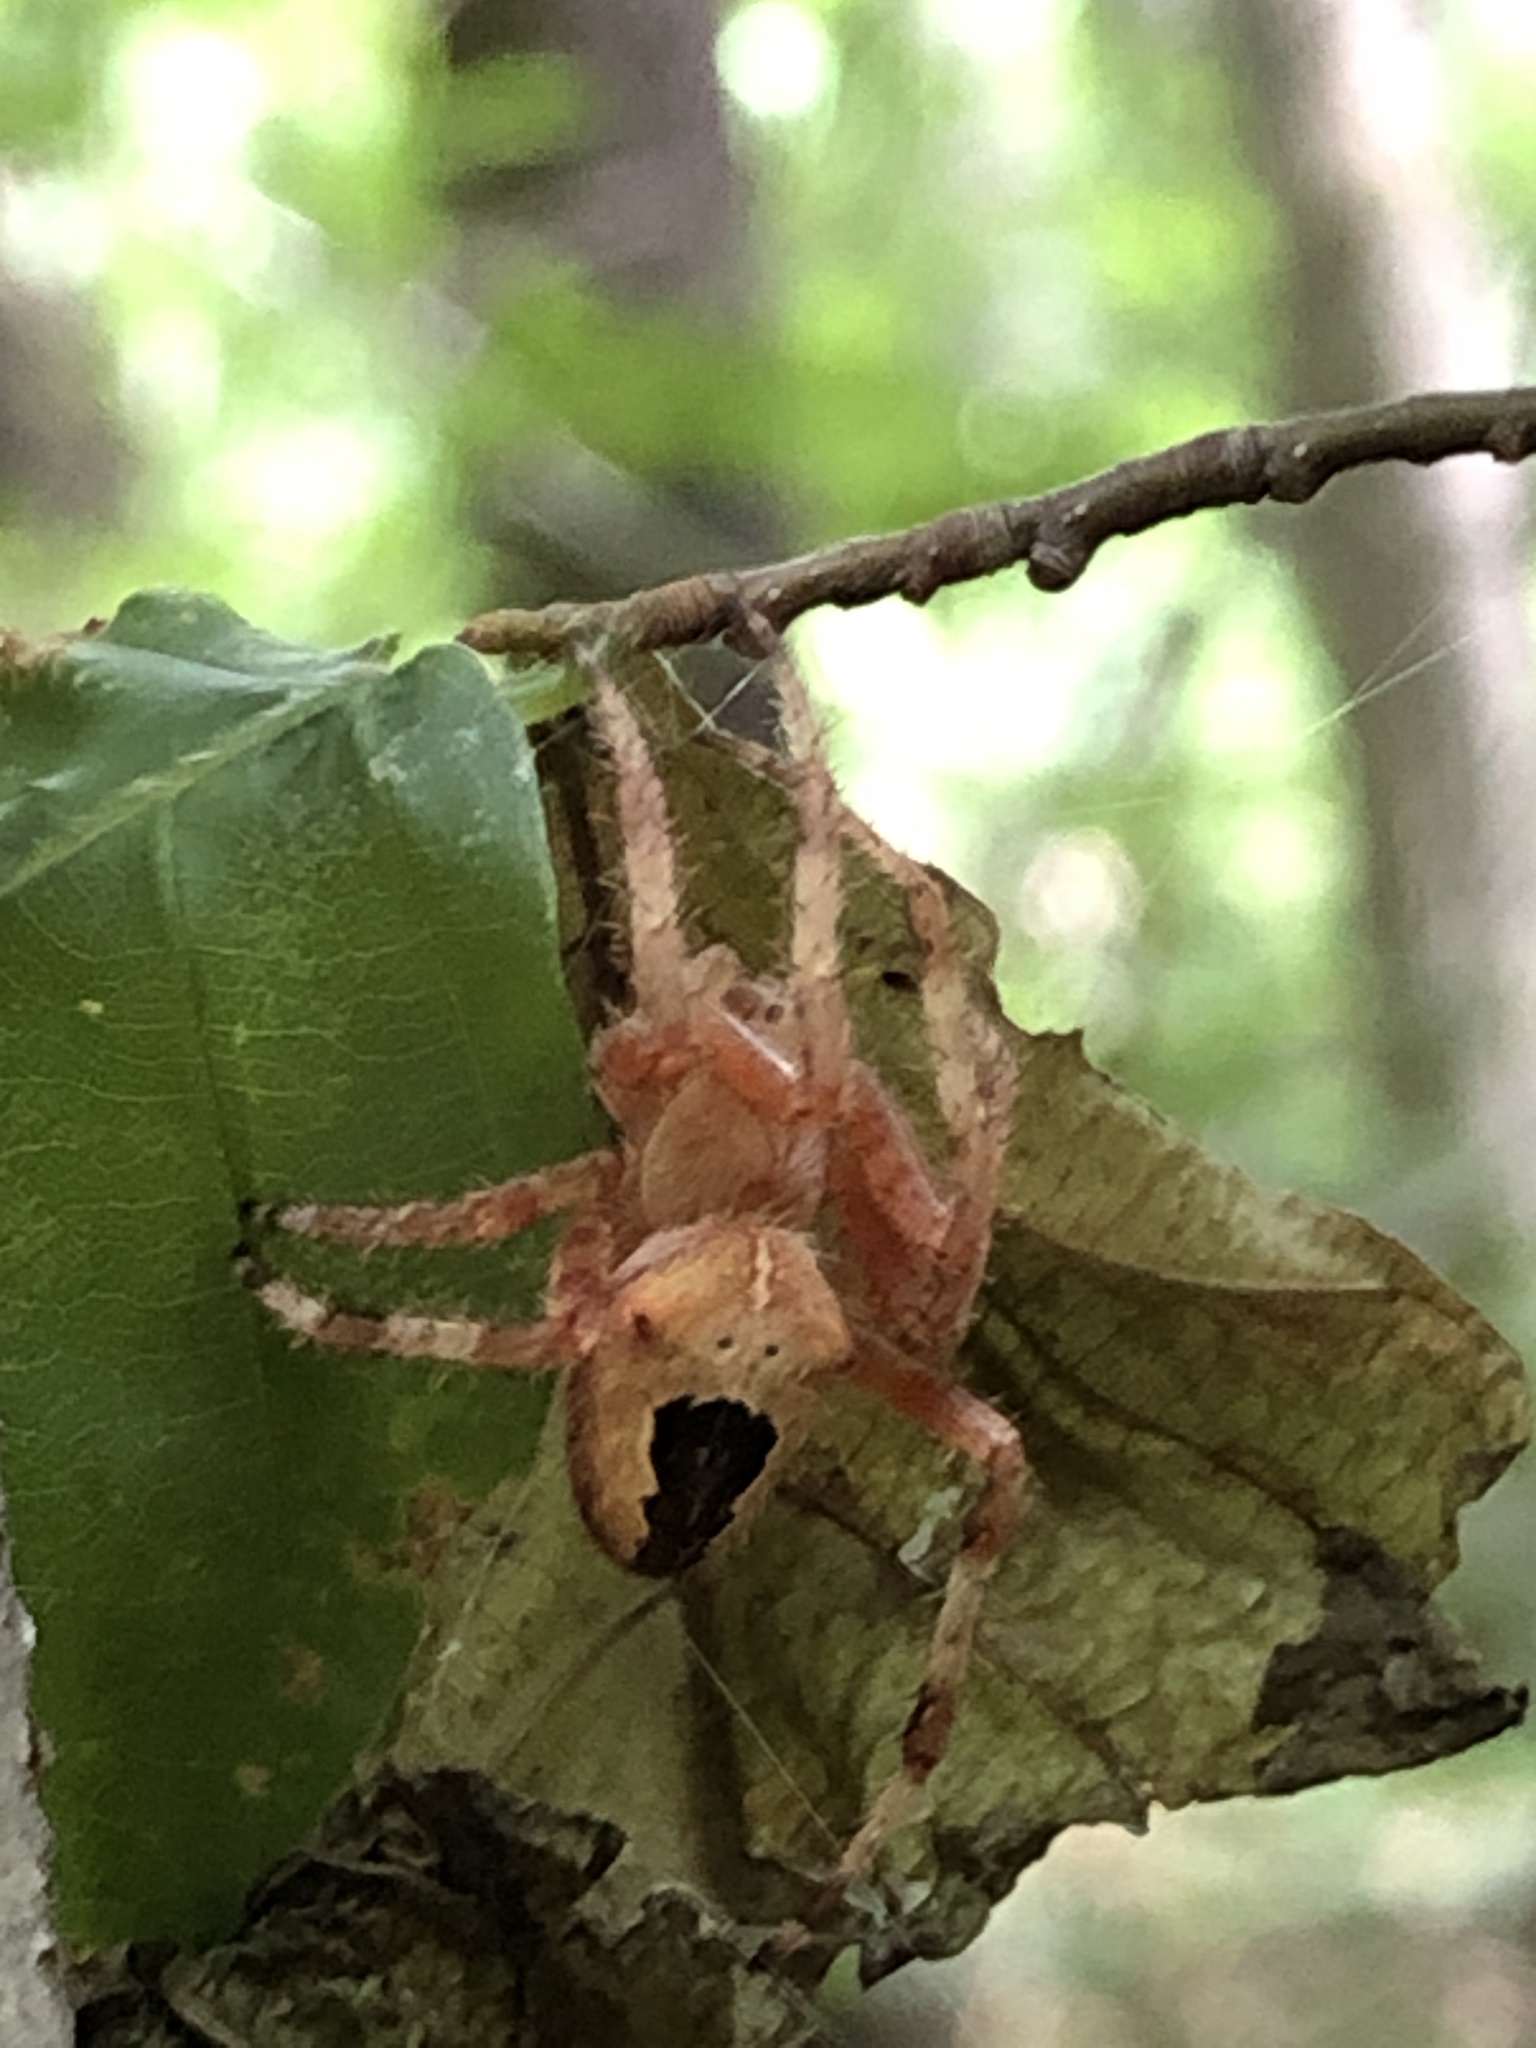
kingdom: Animalia
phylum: Arthropoda
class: Arachnida
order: Araneae
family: Araneidae
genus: Araneus
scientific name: Araneus marmoreus
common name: Marbled orbweaver
